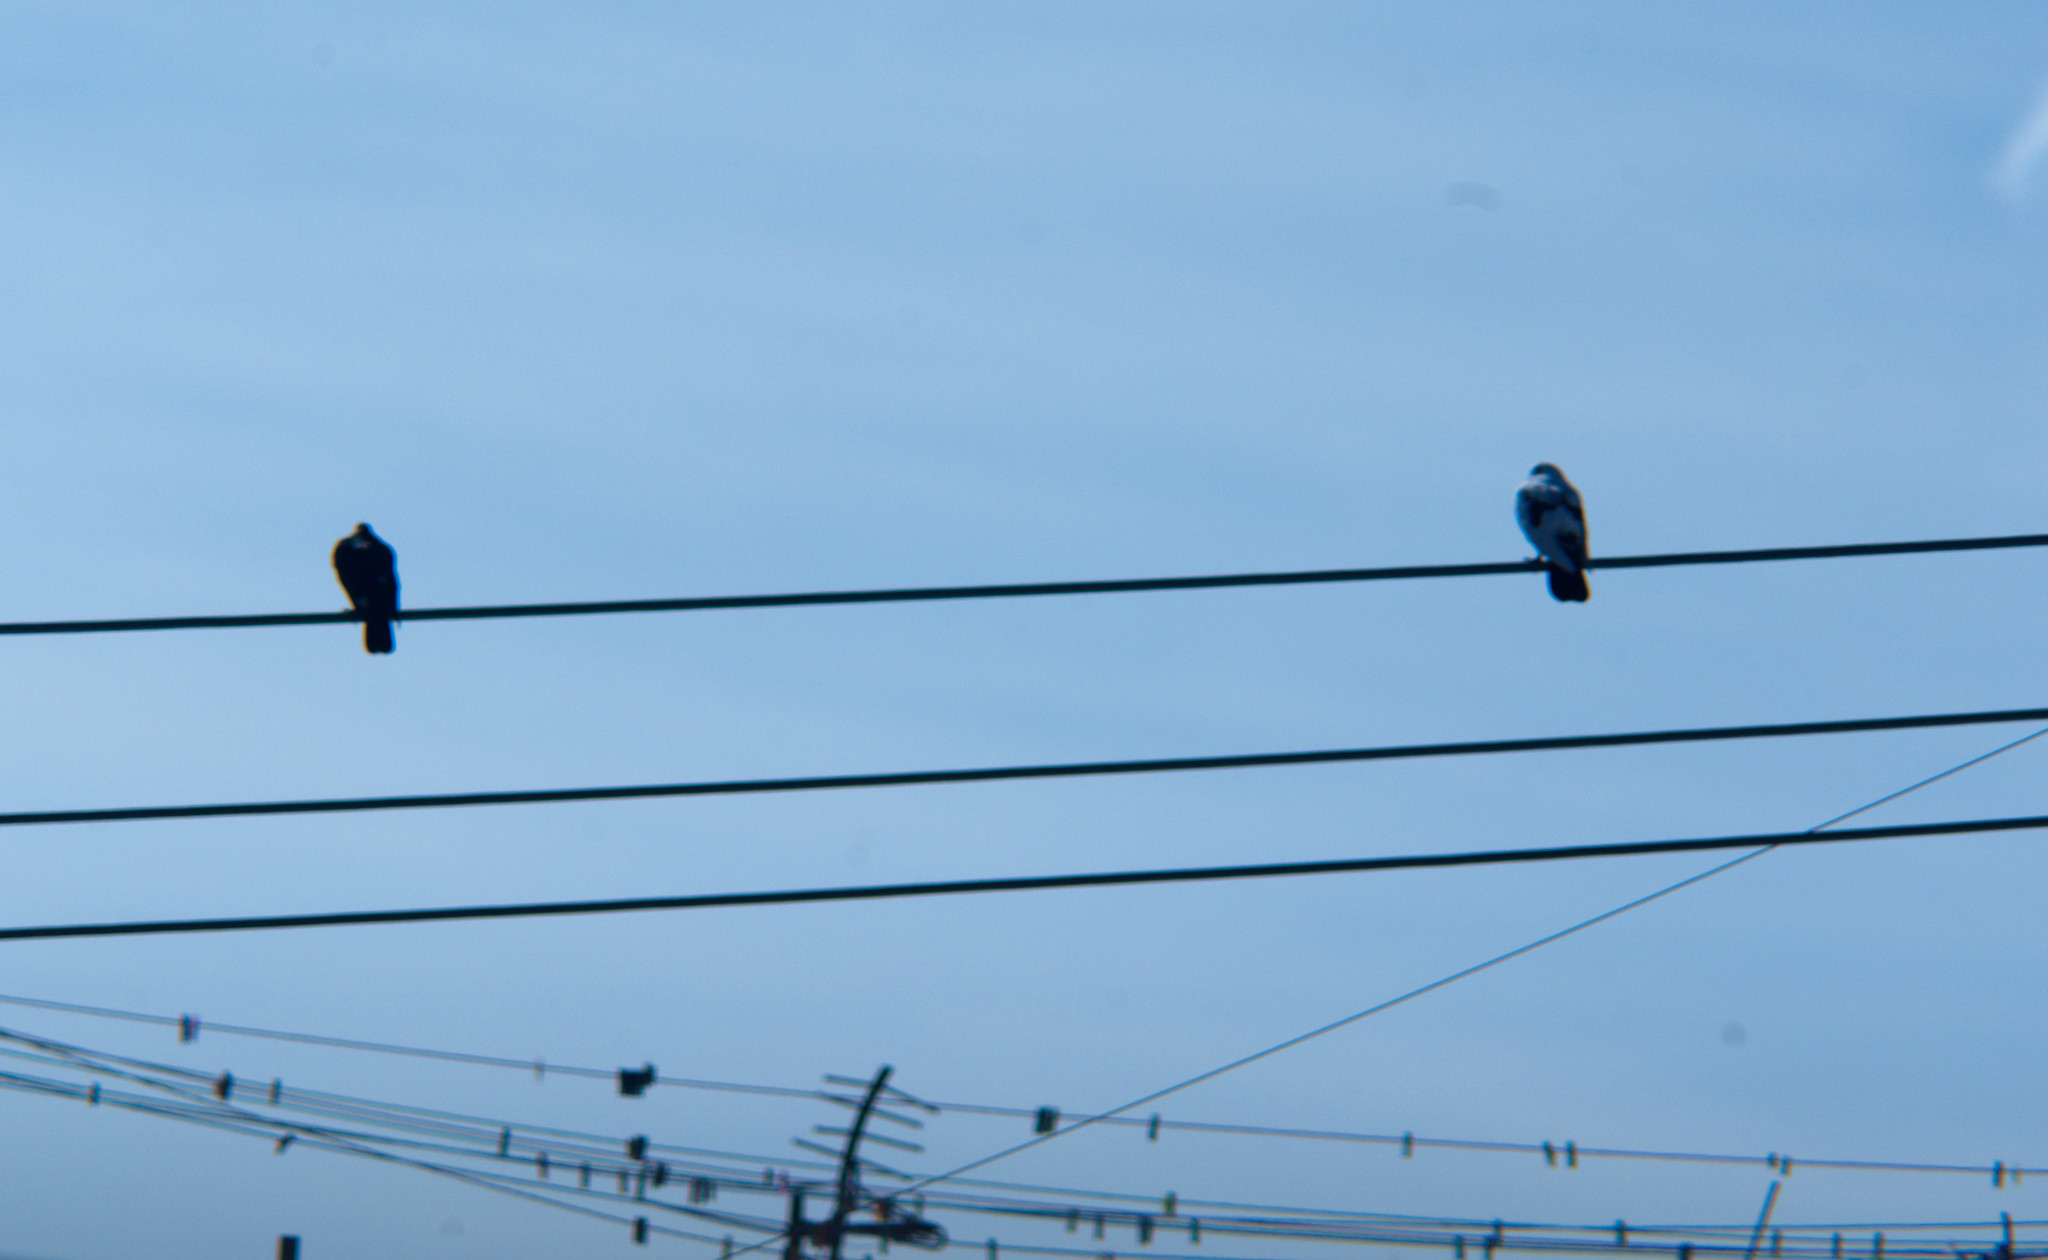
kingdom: Animalia
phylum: Chordata
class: Aves
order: Columbiformes
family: Columbidae
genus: Columba
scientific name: Columba livia
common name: Rock pigeon
